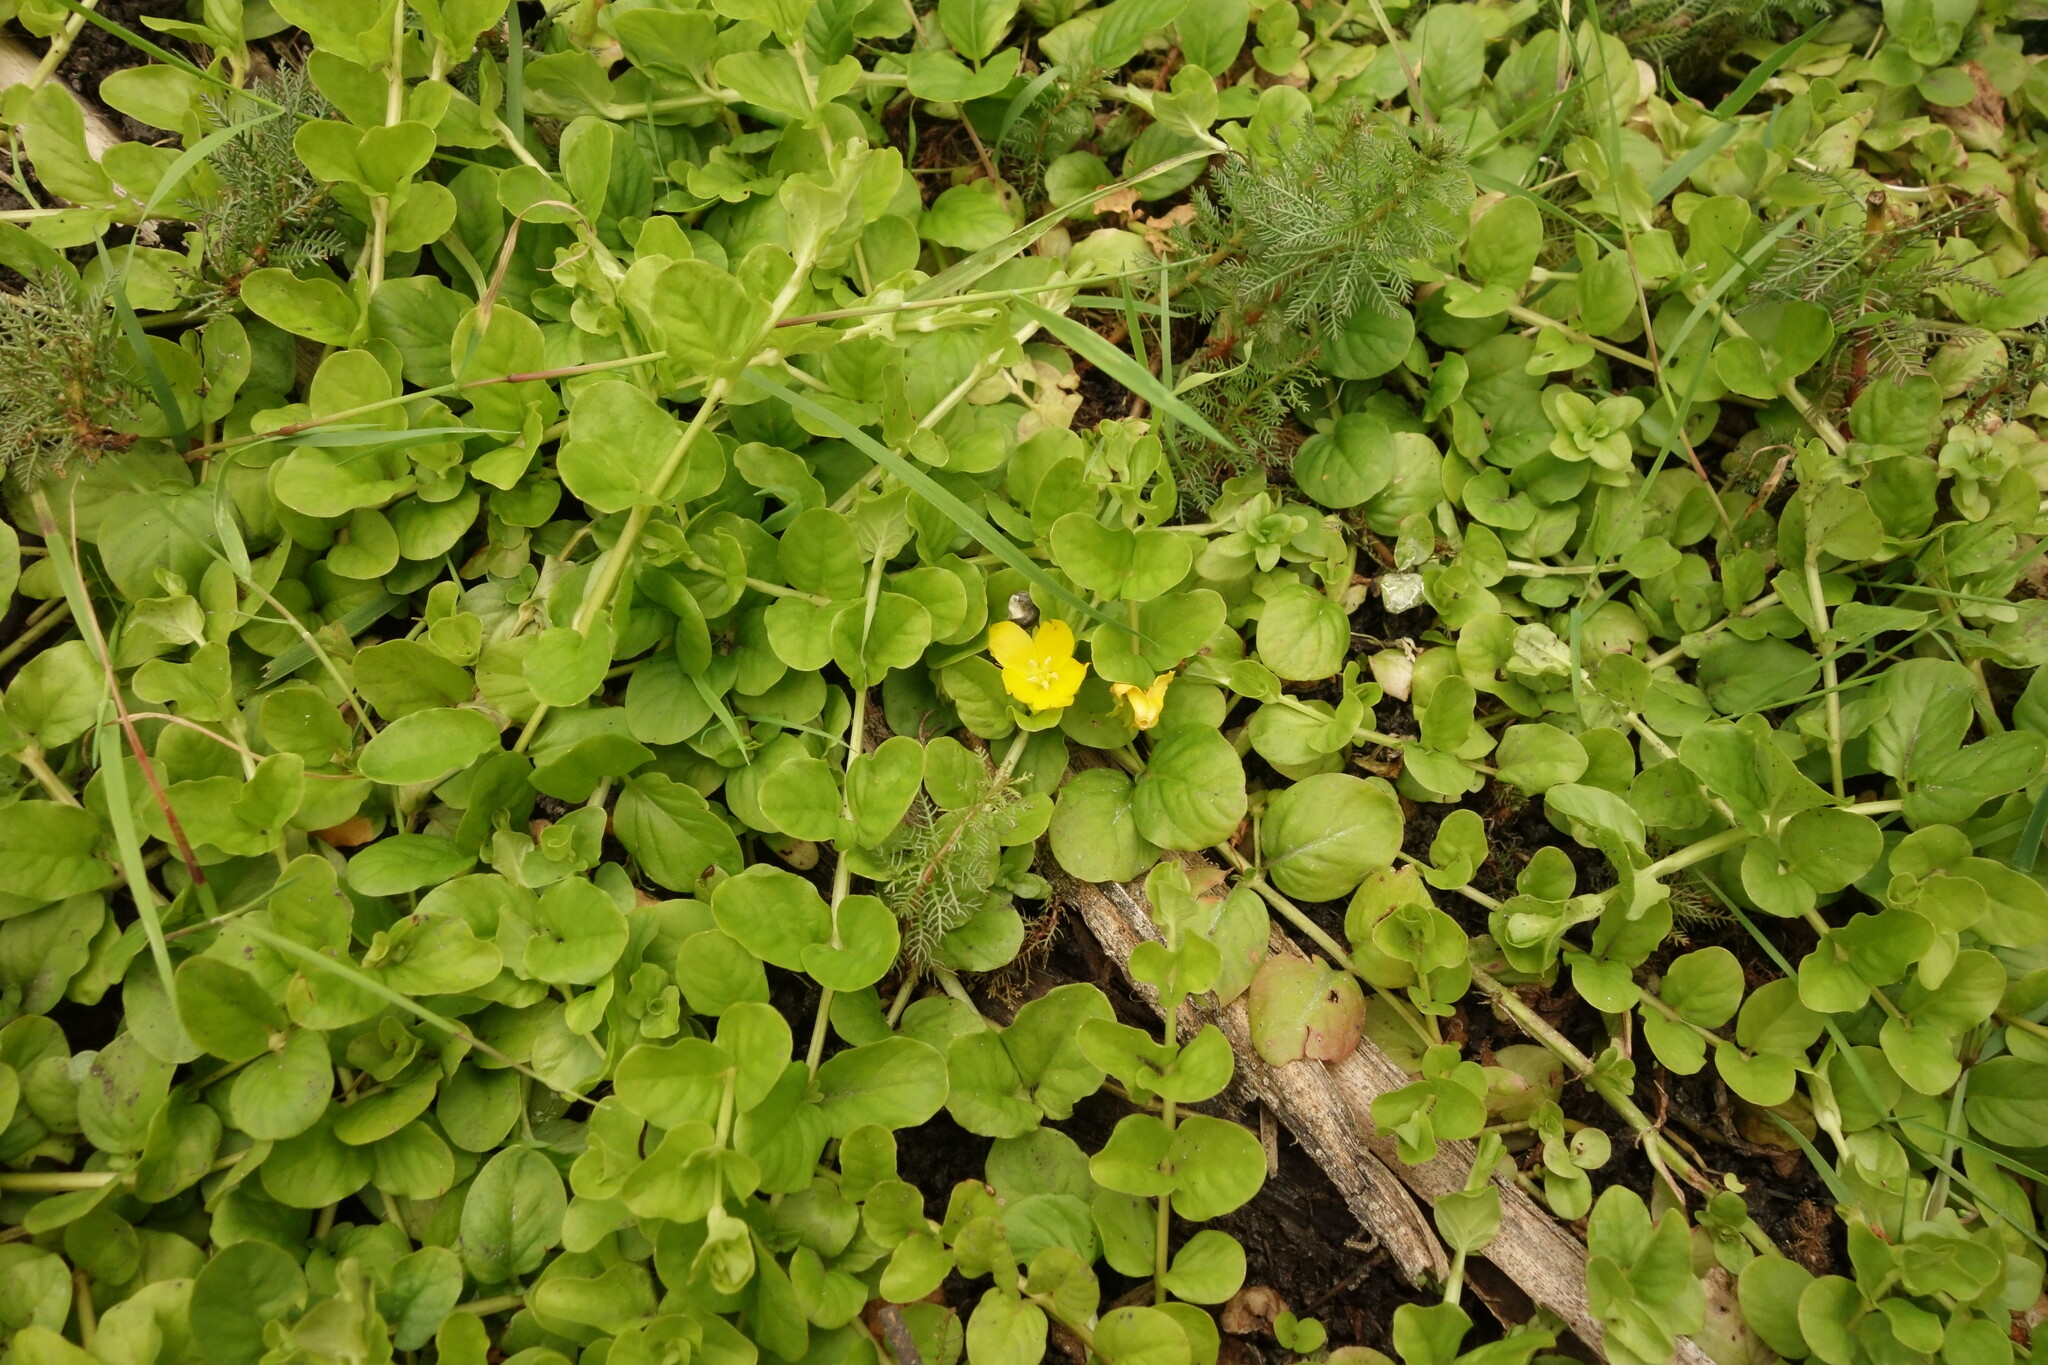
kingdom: Plantae
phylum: Tracheophyta
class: Magnoliopsida
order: Ericales
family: Primulaceae
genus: Lysimachia
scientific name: Lysimachia nummularia
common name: Moneywort
